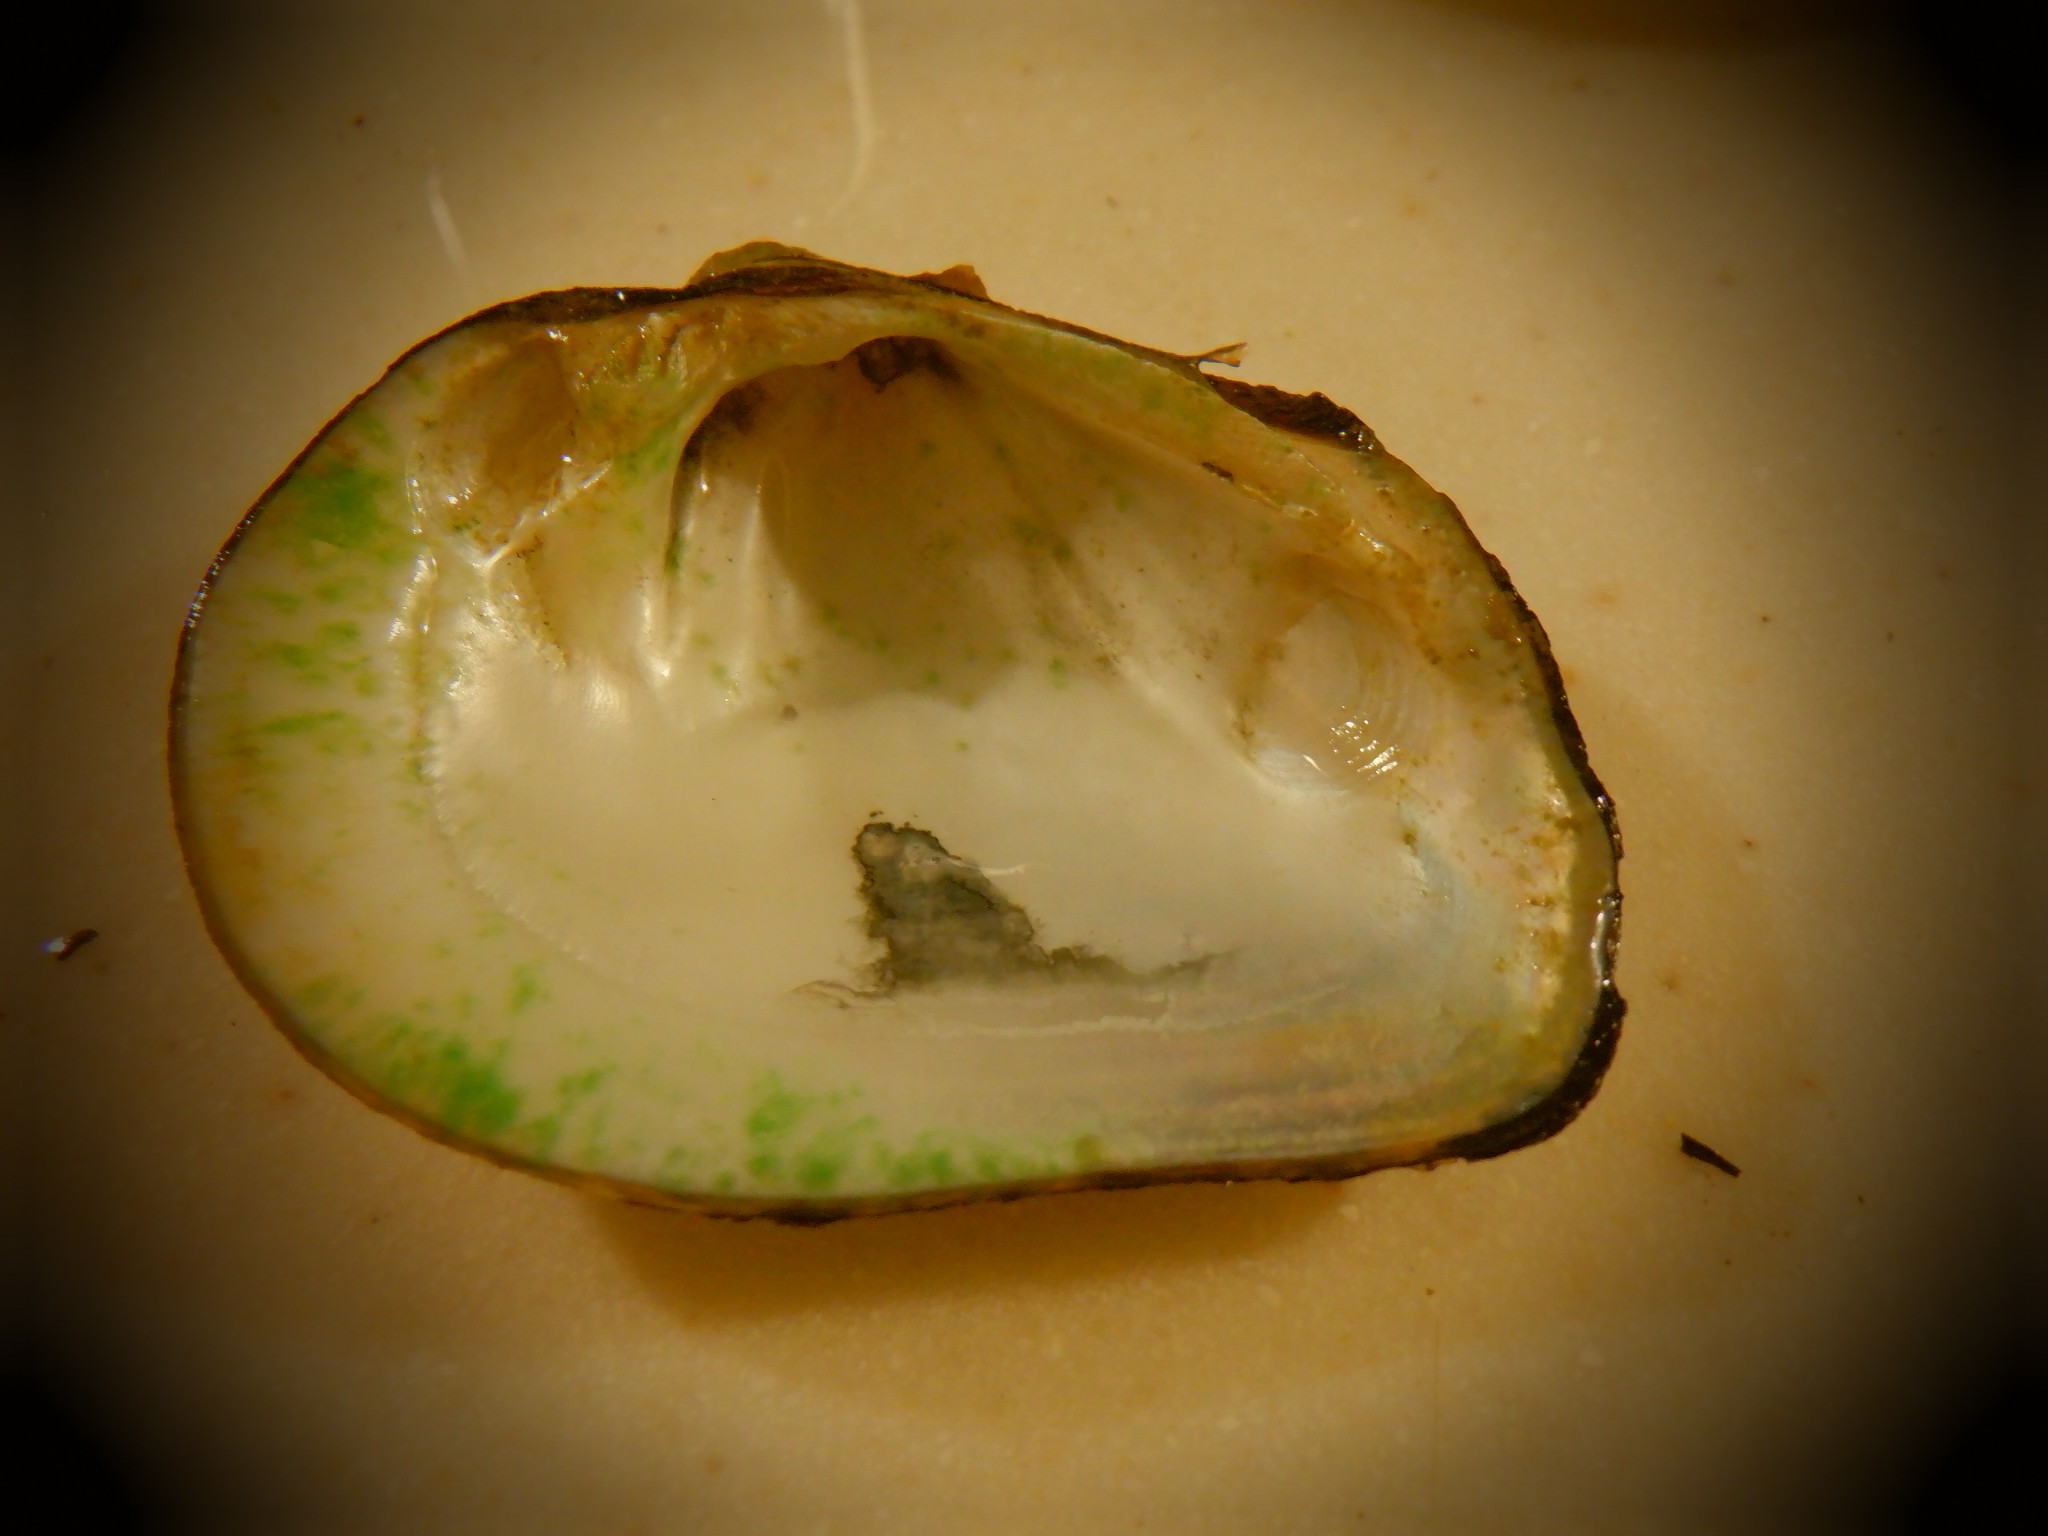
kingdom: Animalia
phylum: Mollusca
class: Bivalvia
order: Unionida
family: Unionidae
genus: Fusconaia
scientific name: Fusconaia flava
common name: Wabash pigtoe
